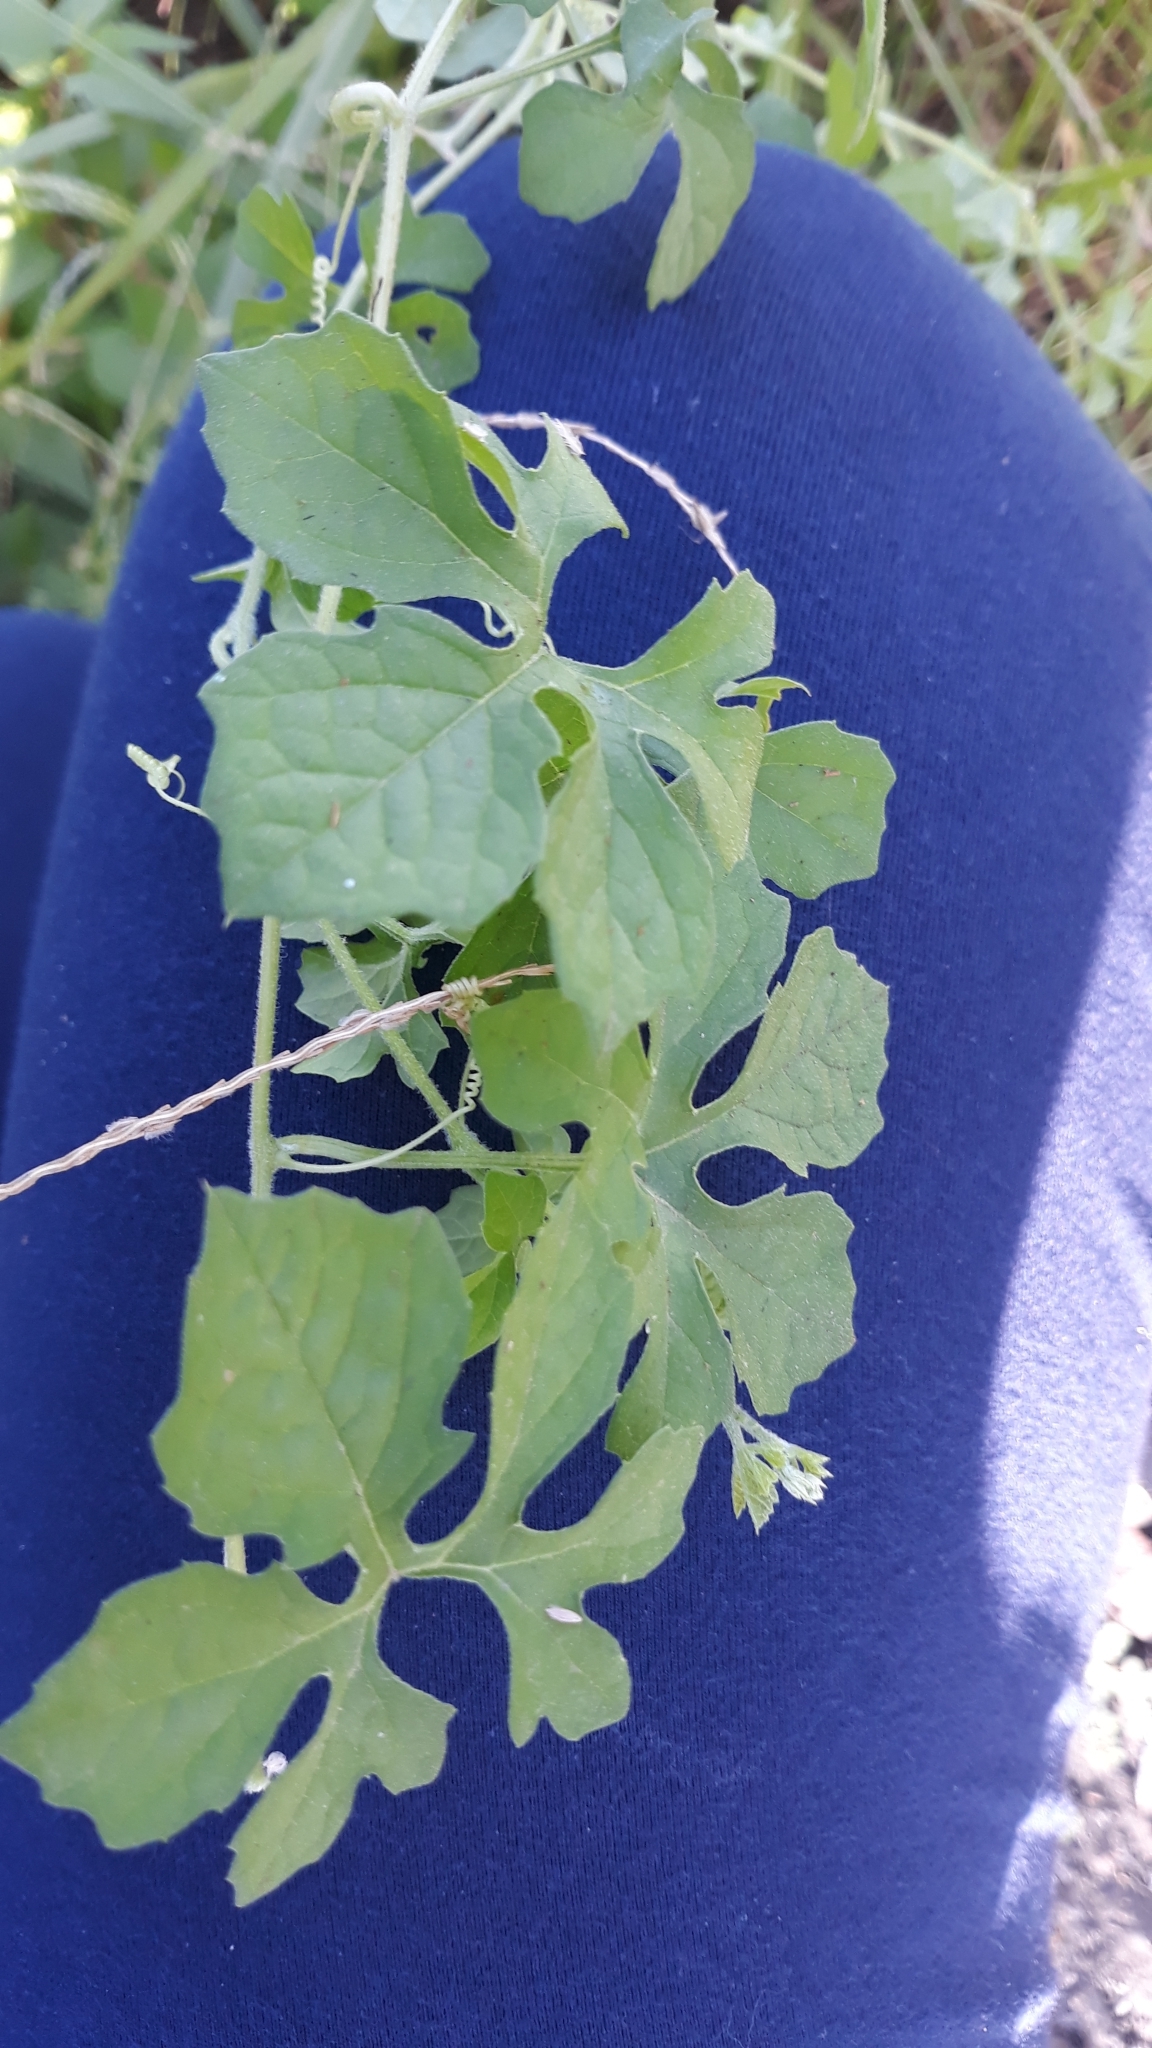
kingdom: Plantae
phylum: Tracheophyta
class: Magnoliopsida
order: Cucurbitales
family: Cucurbitaceae
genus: Momordica
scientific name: Momordica charantia
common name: Balsampear
